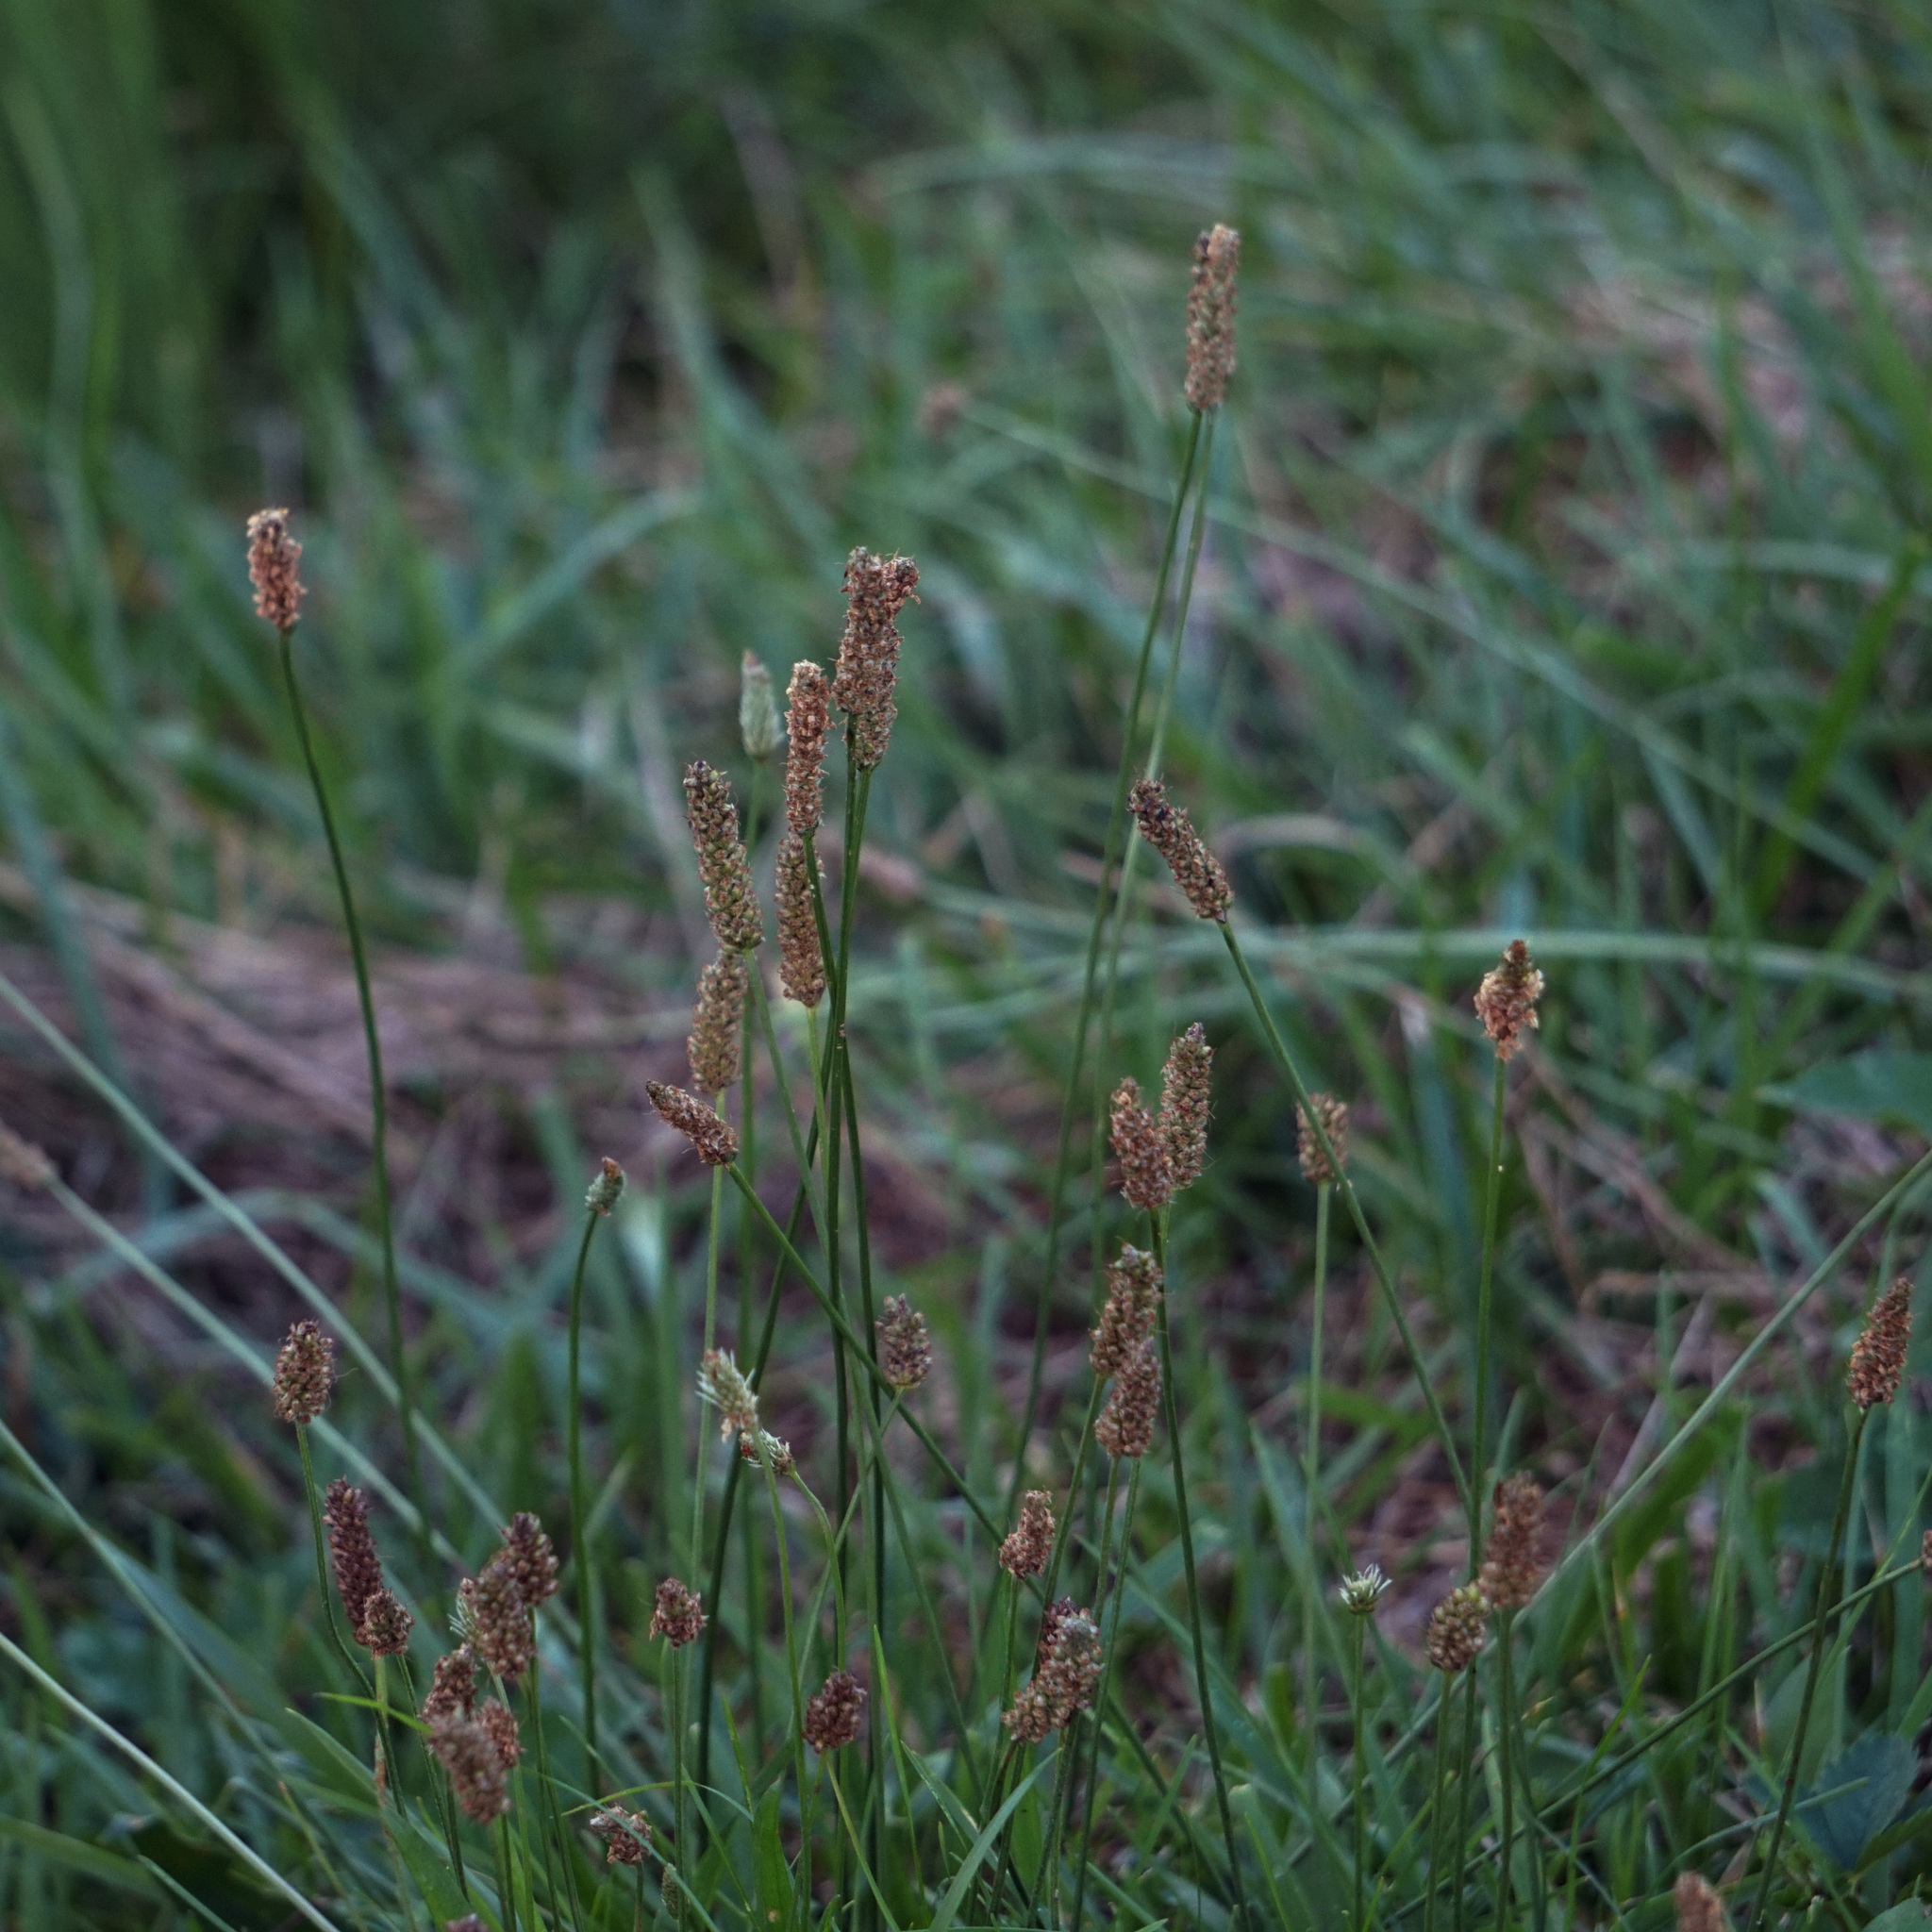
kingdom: Plantae
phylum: Tracheophyta
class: Magnoliopsida
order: Lamiales
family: Plantaginaceae
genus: Plantago
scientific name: Plantago lanceolata
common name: Ribwort plantain
